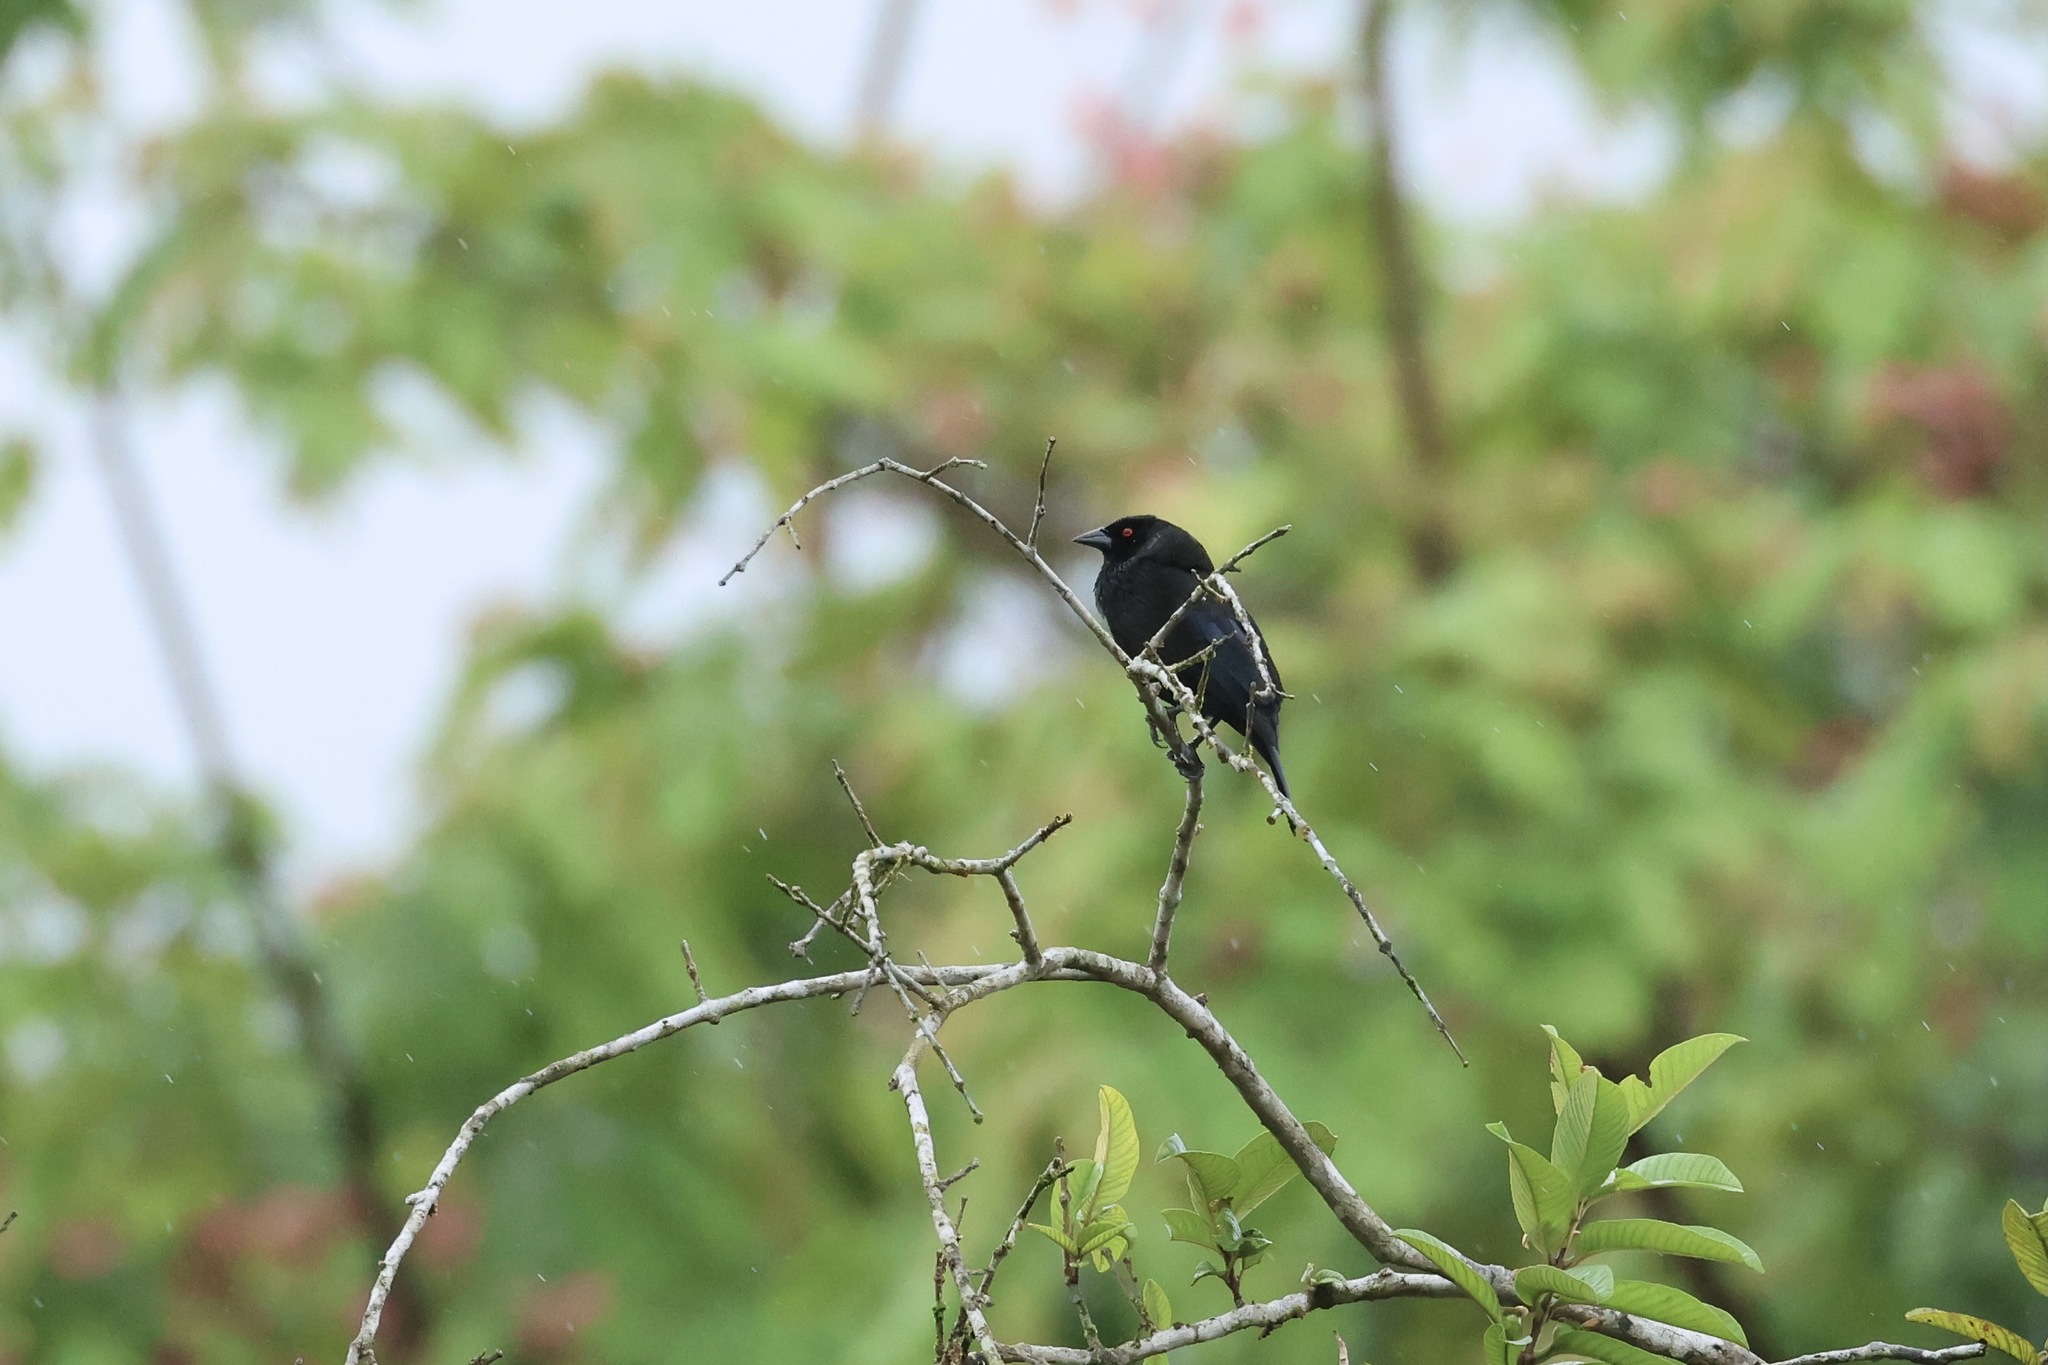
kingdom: Animalia
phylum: Chordata
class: Aves
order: Passeriformes
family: Icteridae
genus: Molothrus
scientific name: Molothrus aeneus
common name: Bronzed cowbird
